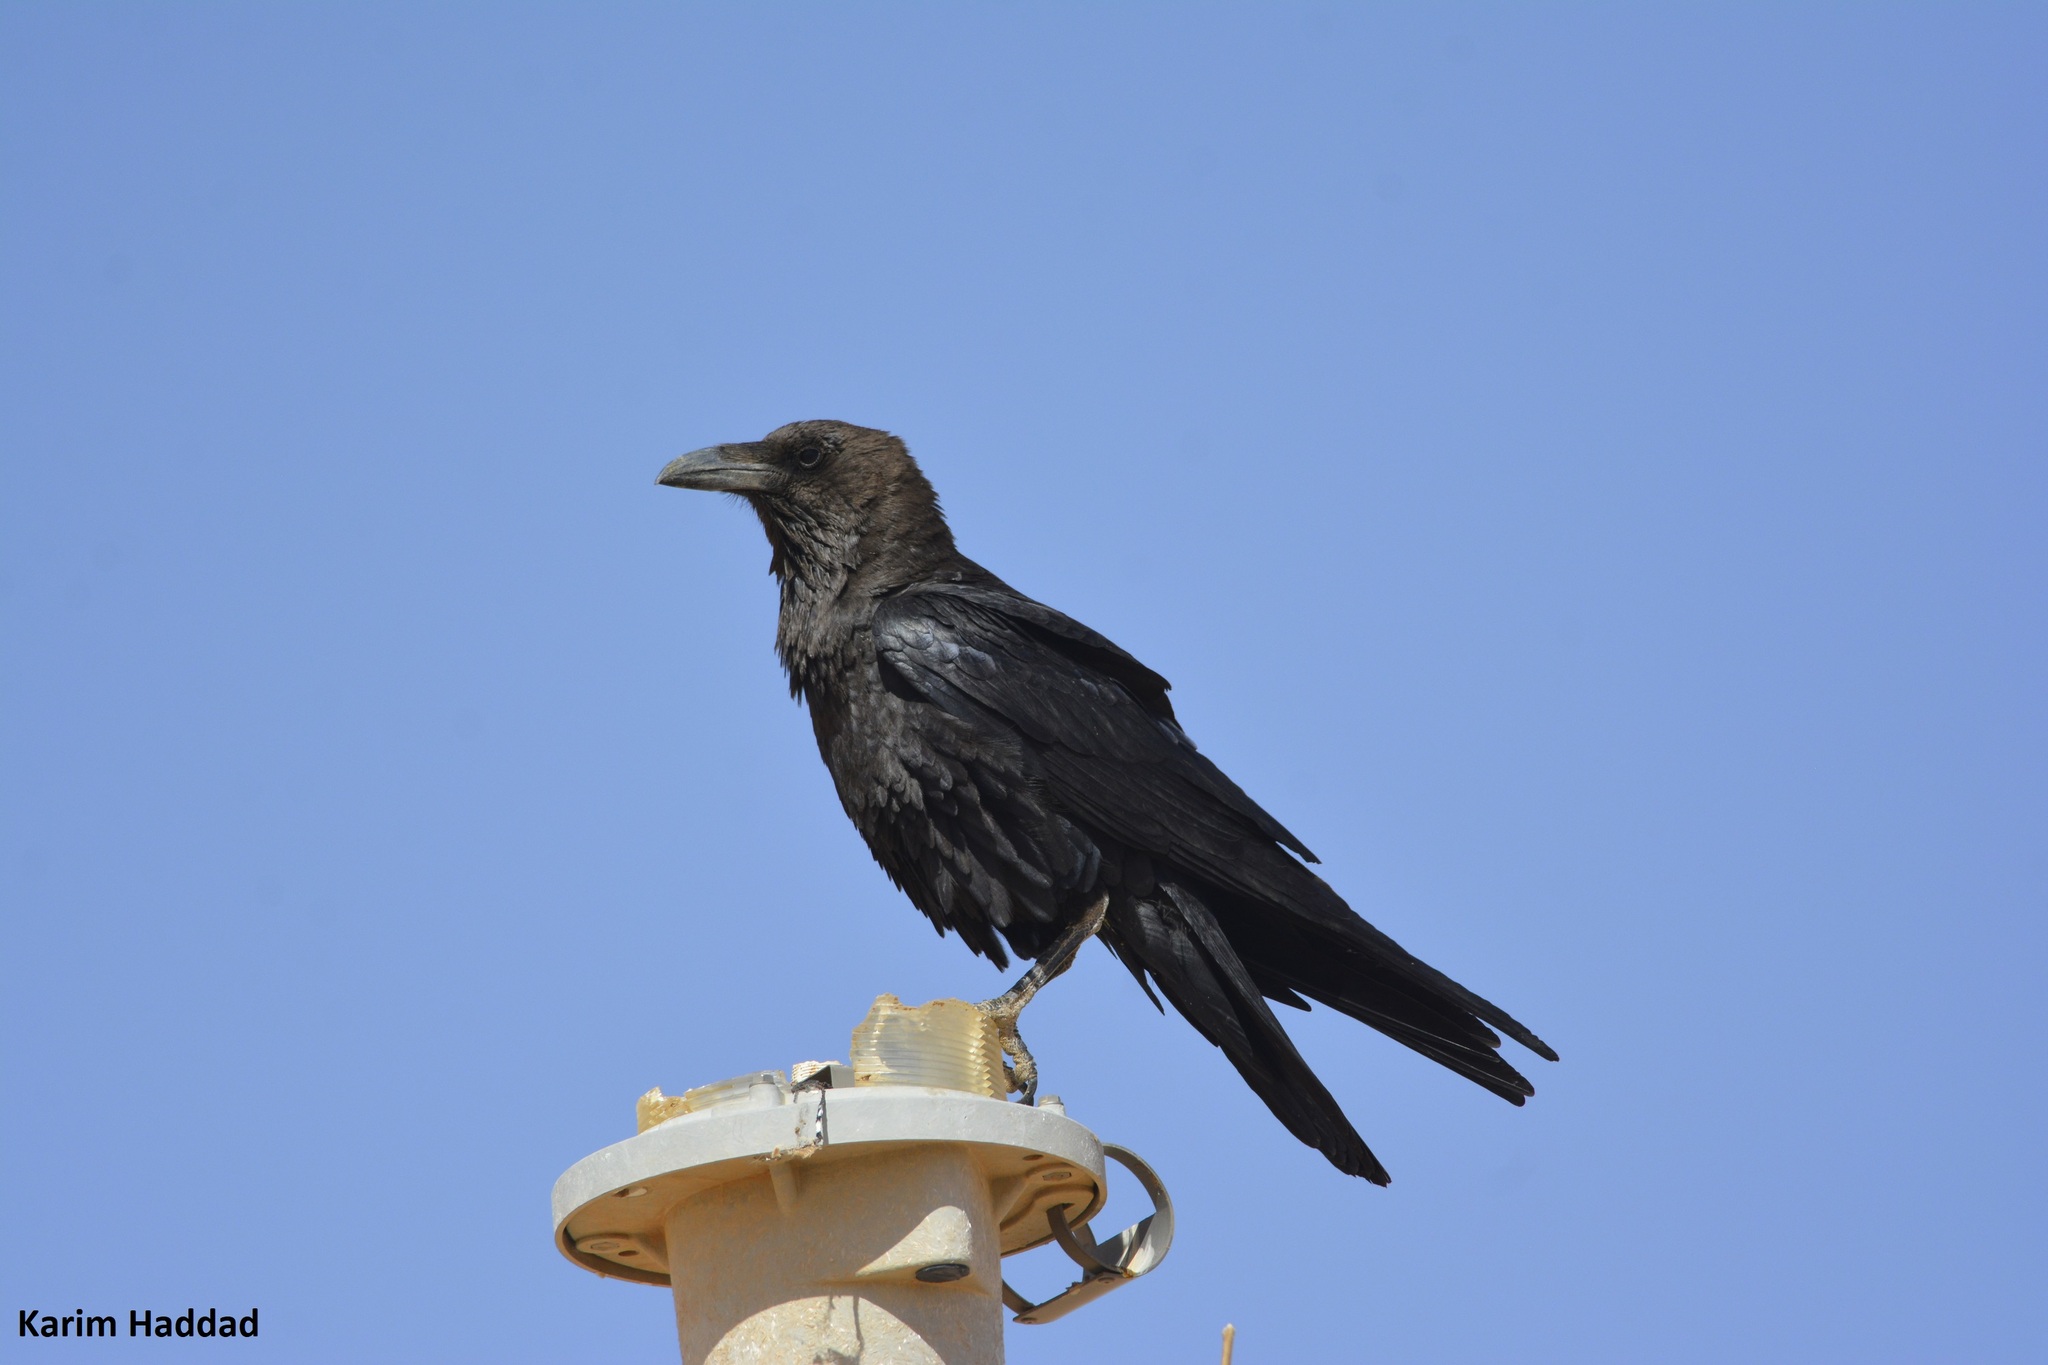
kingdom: Animalia
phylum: Chordata
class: Aves
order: Passeriformes
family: Corvidae
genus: Corvus
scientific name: Corvus ruficollis
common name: Brown-necked raven
